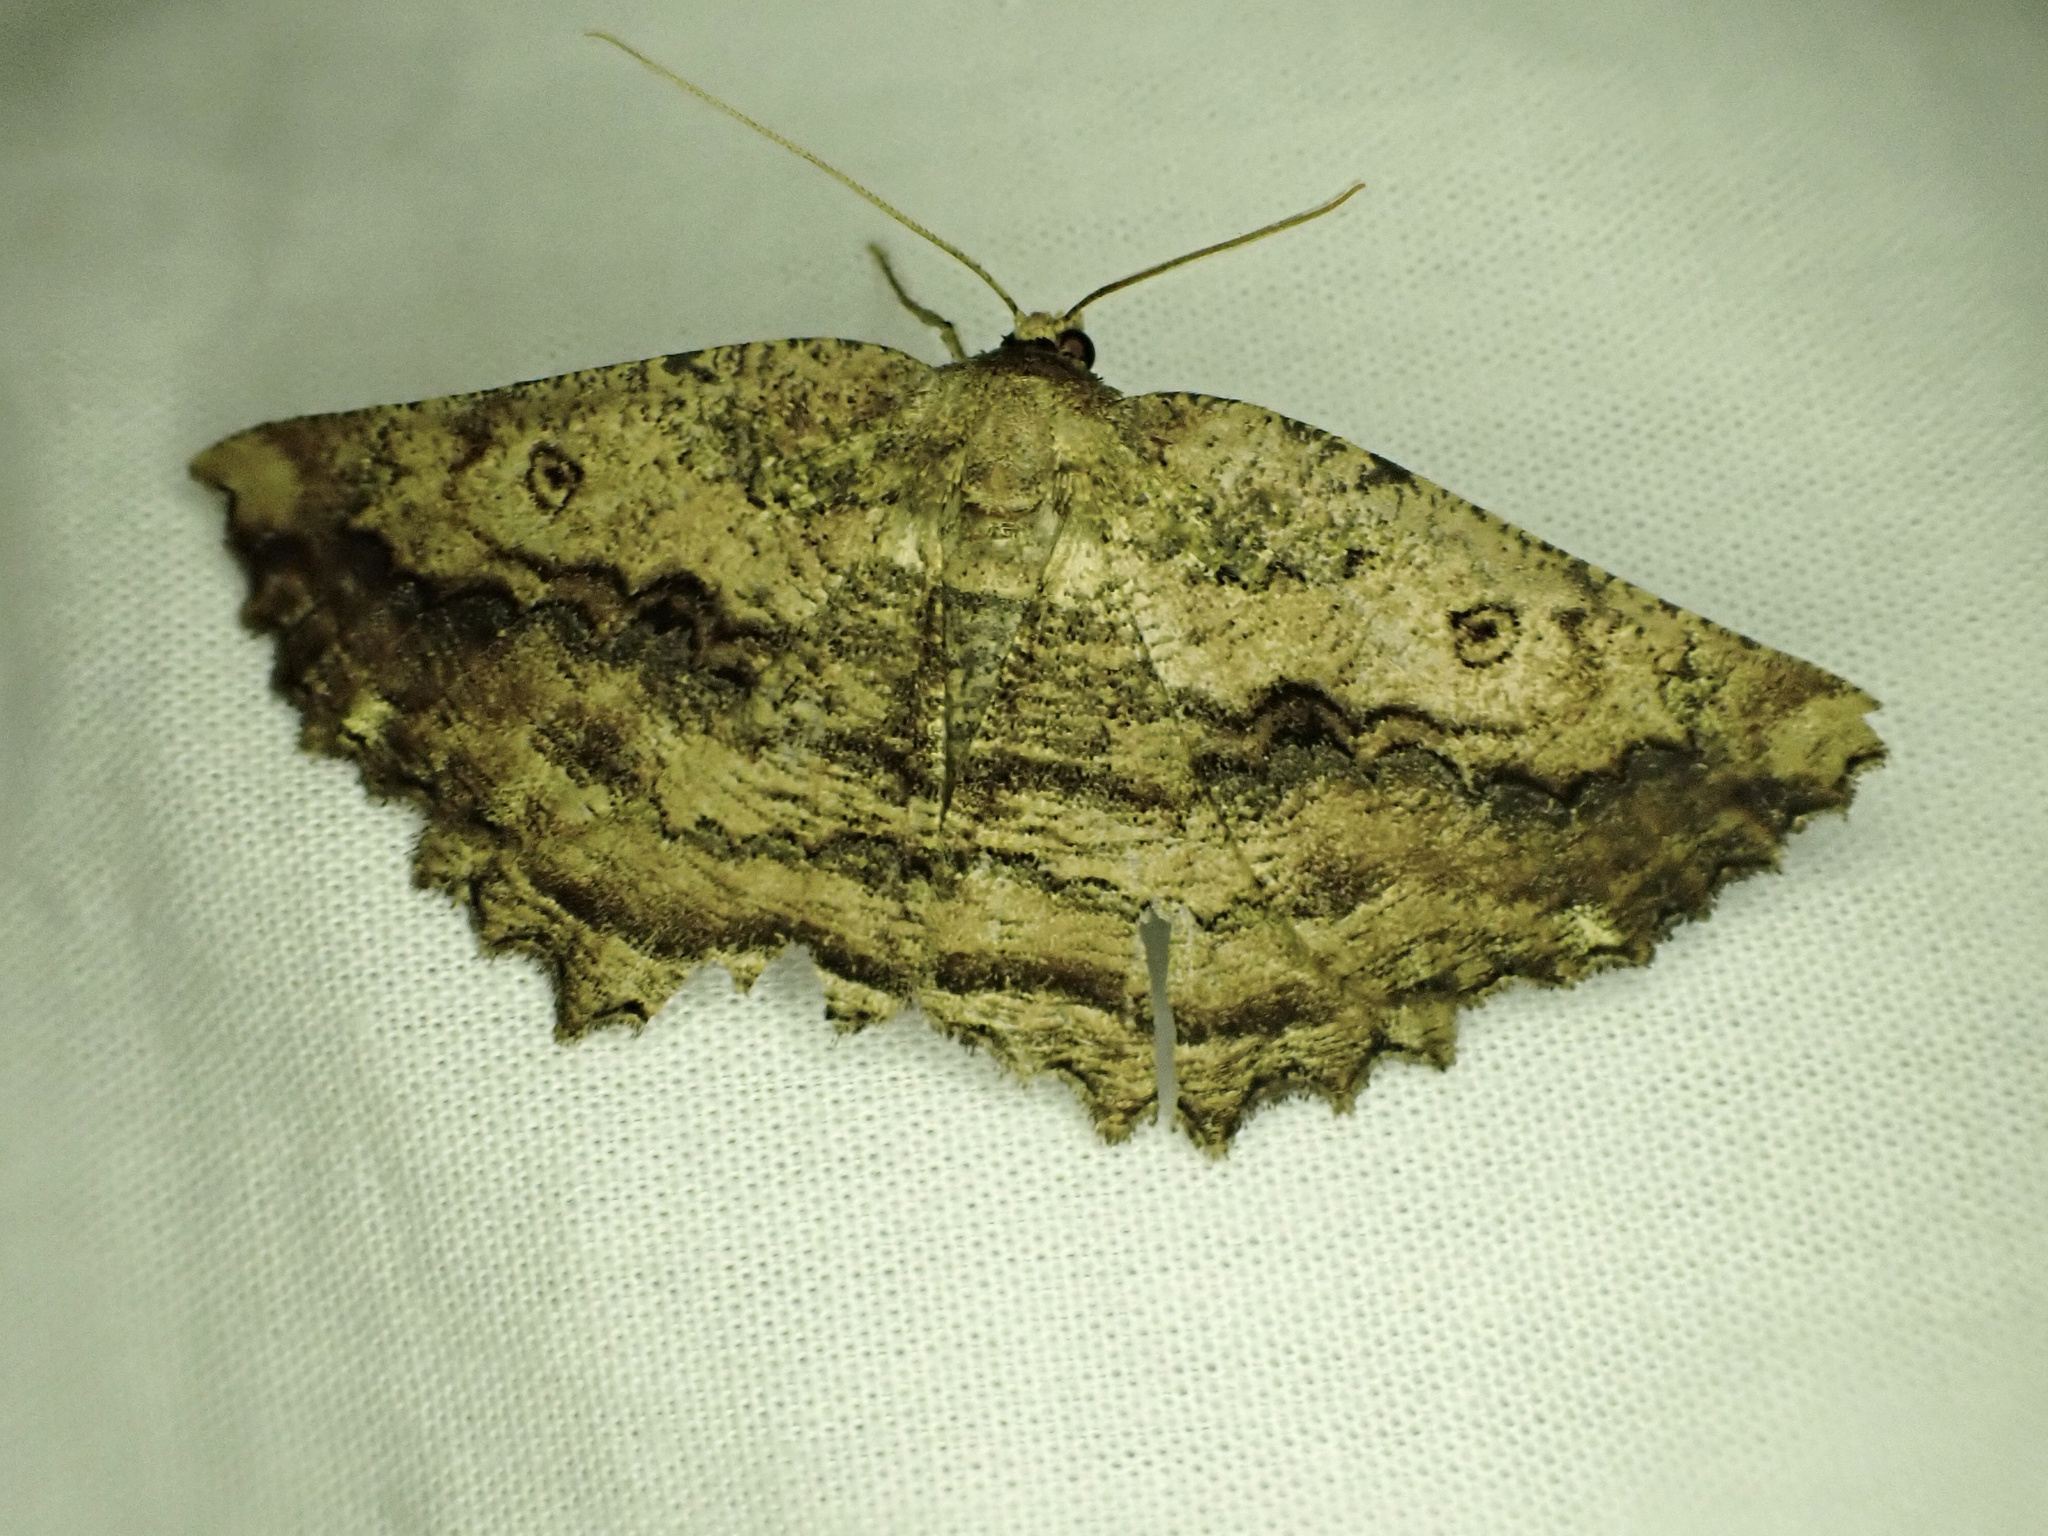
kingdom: Animalia
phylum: Arthropoda
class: Insecta
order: Lepidoptera
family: Geometridae
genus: Gellonia
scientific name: Gellonia pannularia
